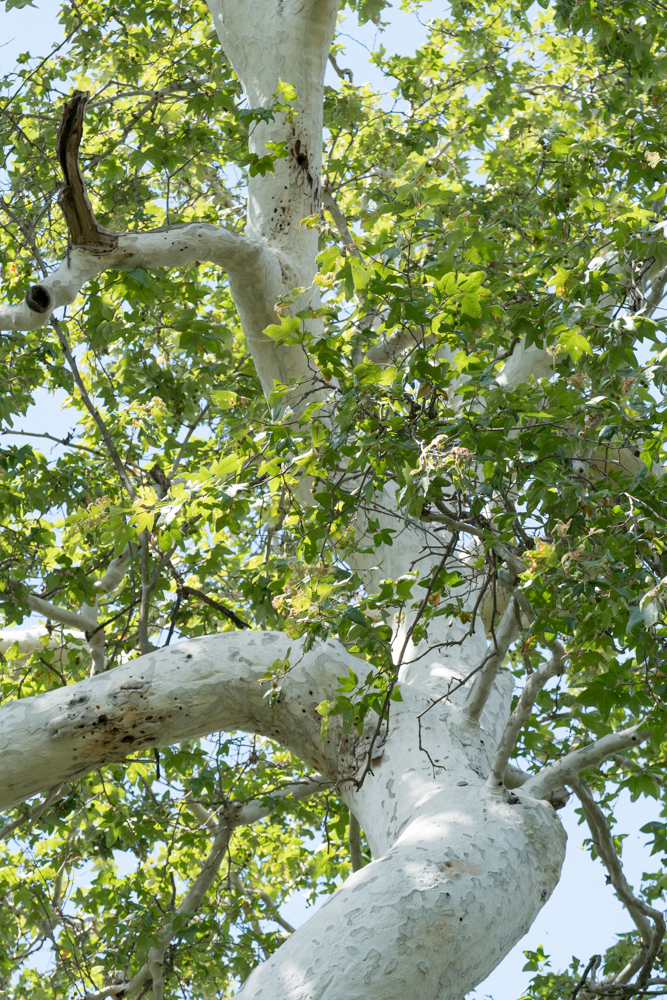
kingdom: Plantae
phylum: Tracheophyta
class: Magnoliopsida
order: Proteales
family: Platanaceae
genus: Platanus
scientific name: Platanus racemosa
